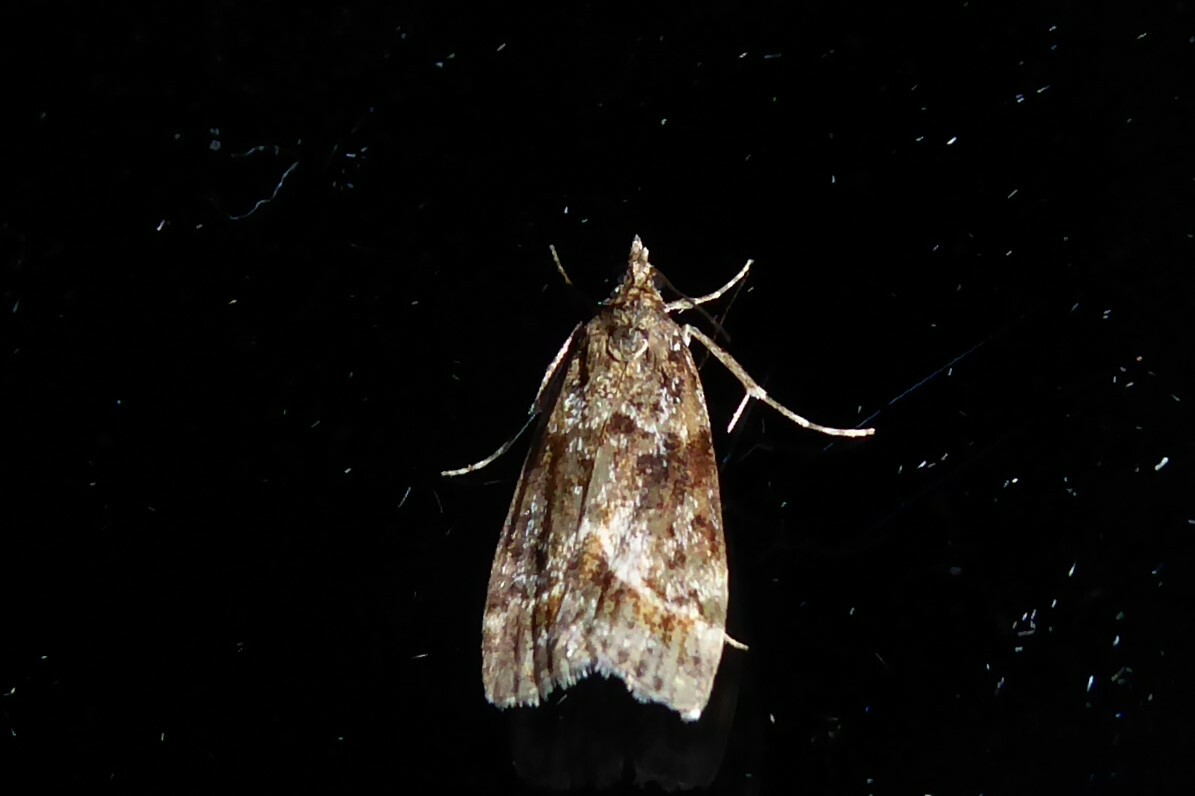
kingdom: Animalia
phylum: Arthropoda
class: Insecta
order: Lepidoptera
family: Crambidae
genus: Eudonia
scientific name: Eudonia legnota
